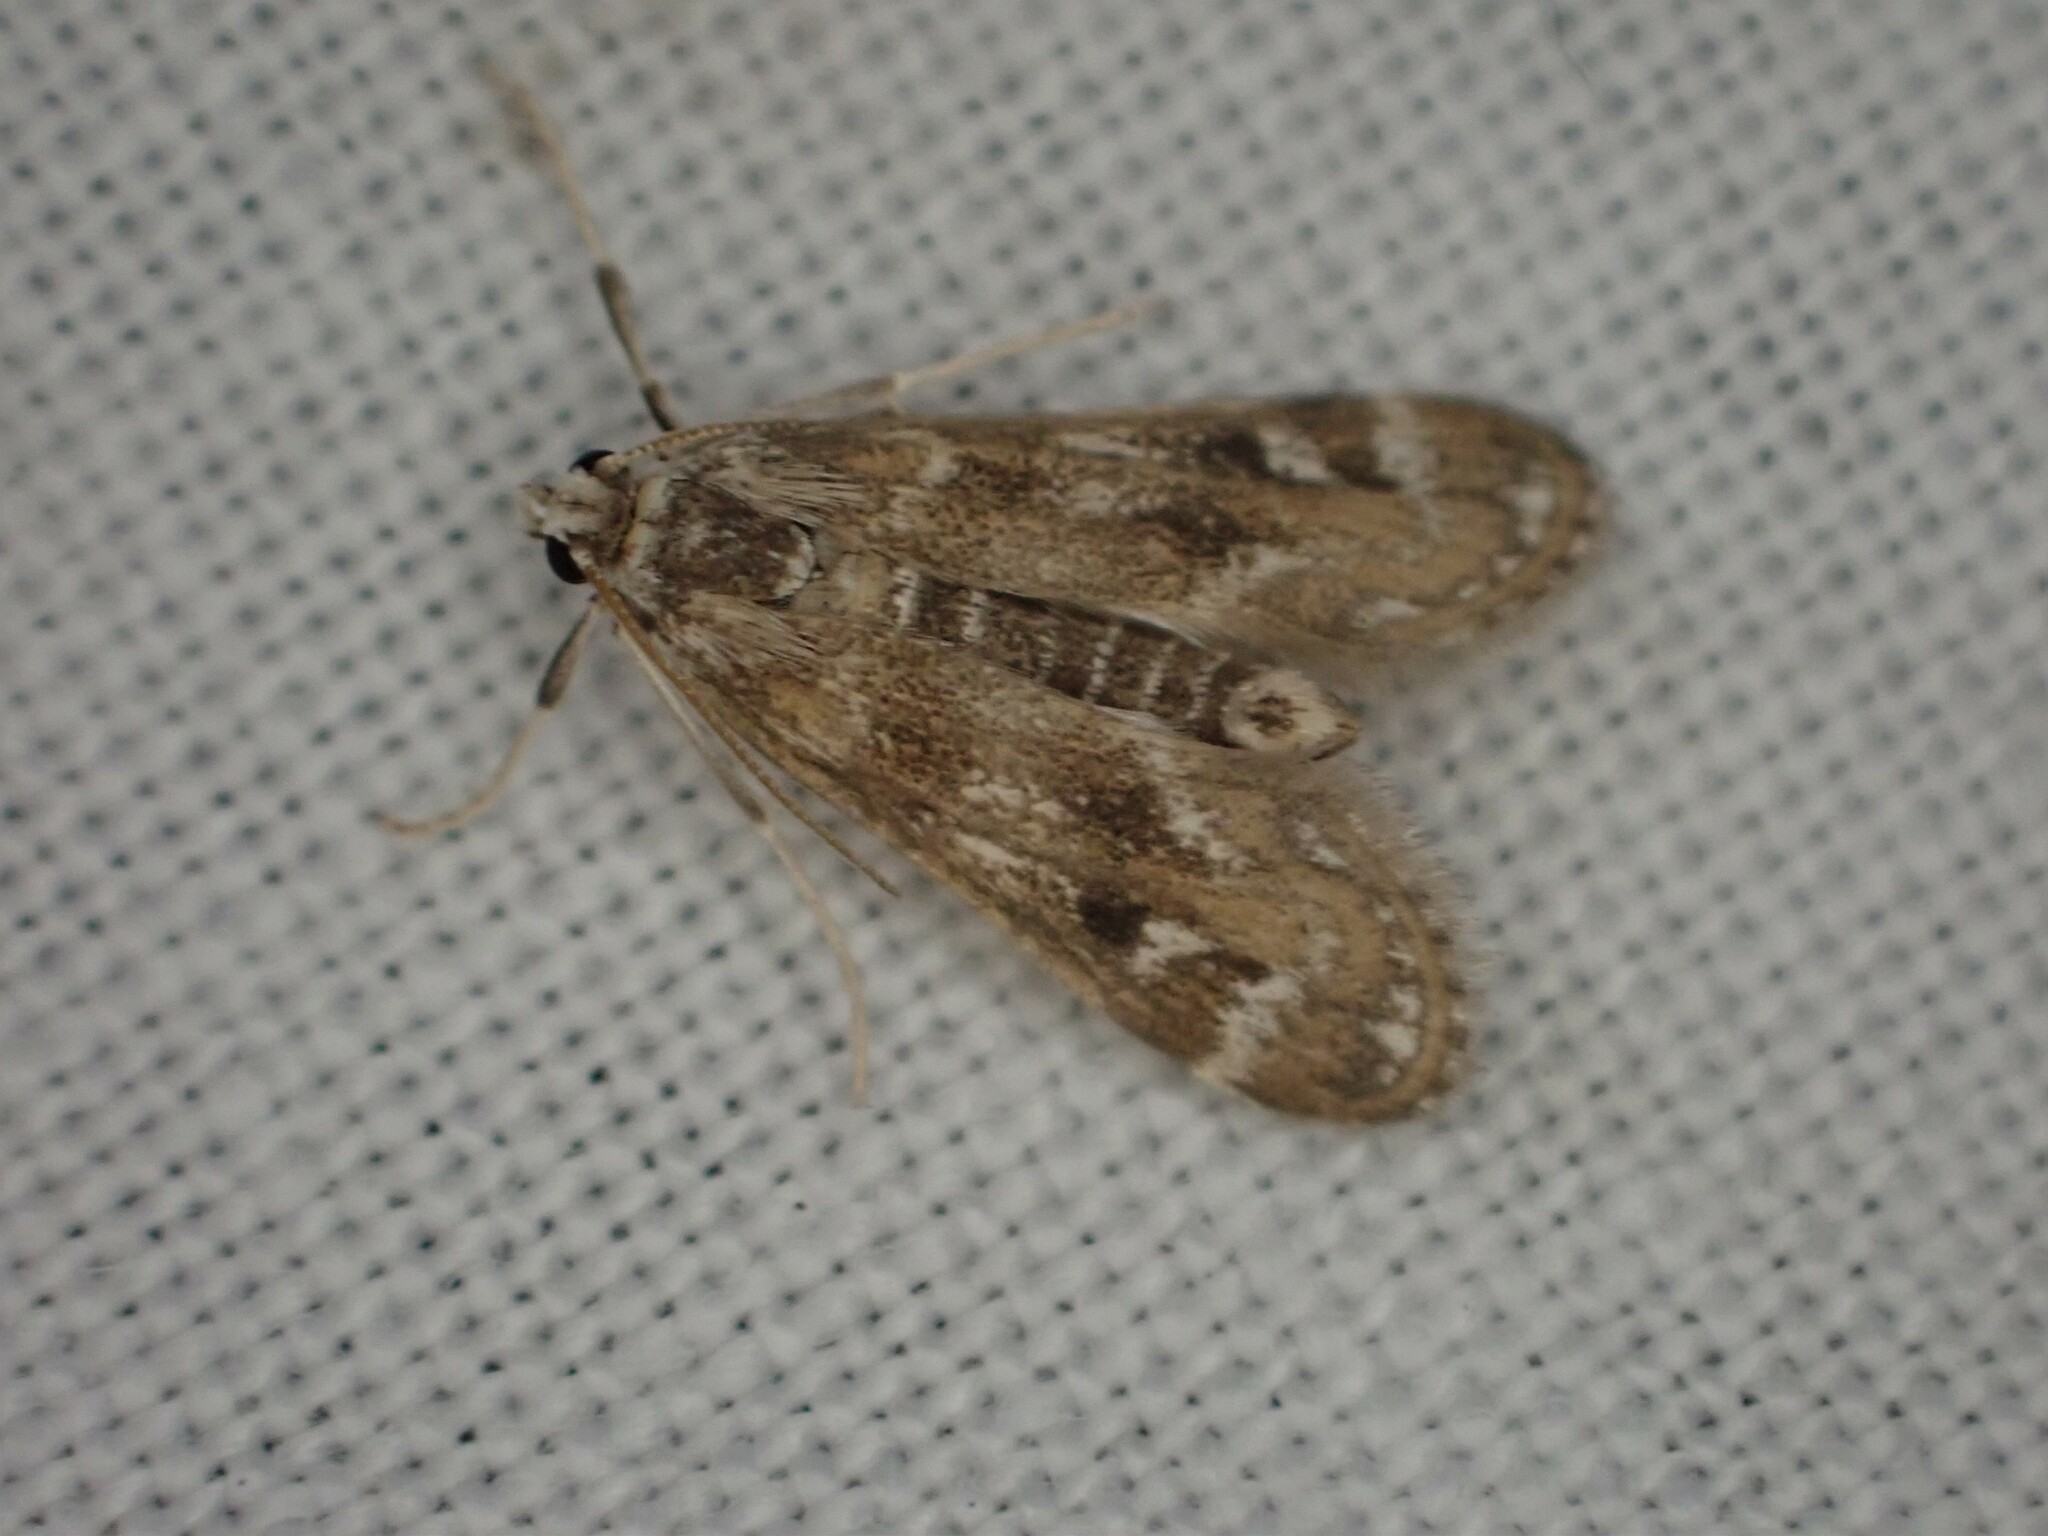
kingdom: Animalia
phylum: Arthropoda
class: Insecta
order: Lepidoptera
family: Crambidae
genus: Hygraula
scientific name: Hygraula nitens
